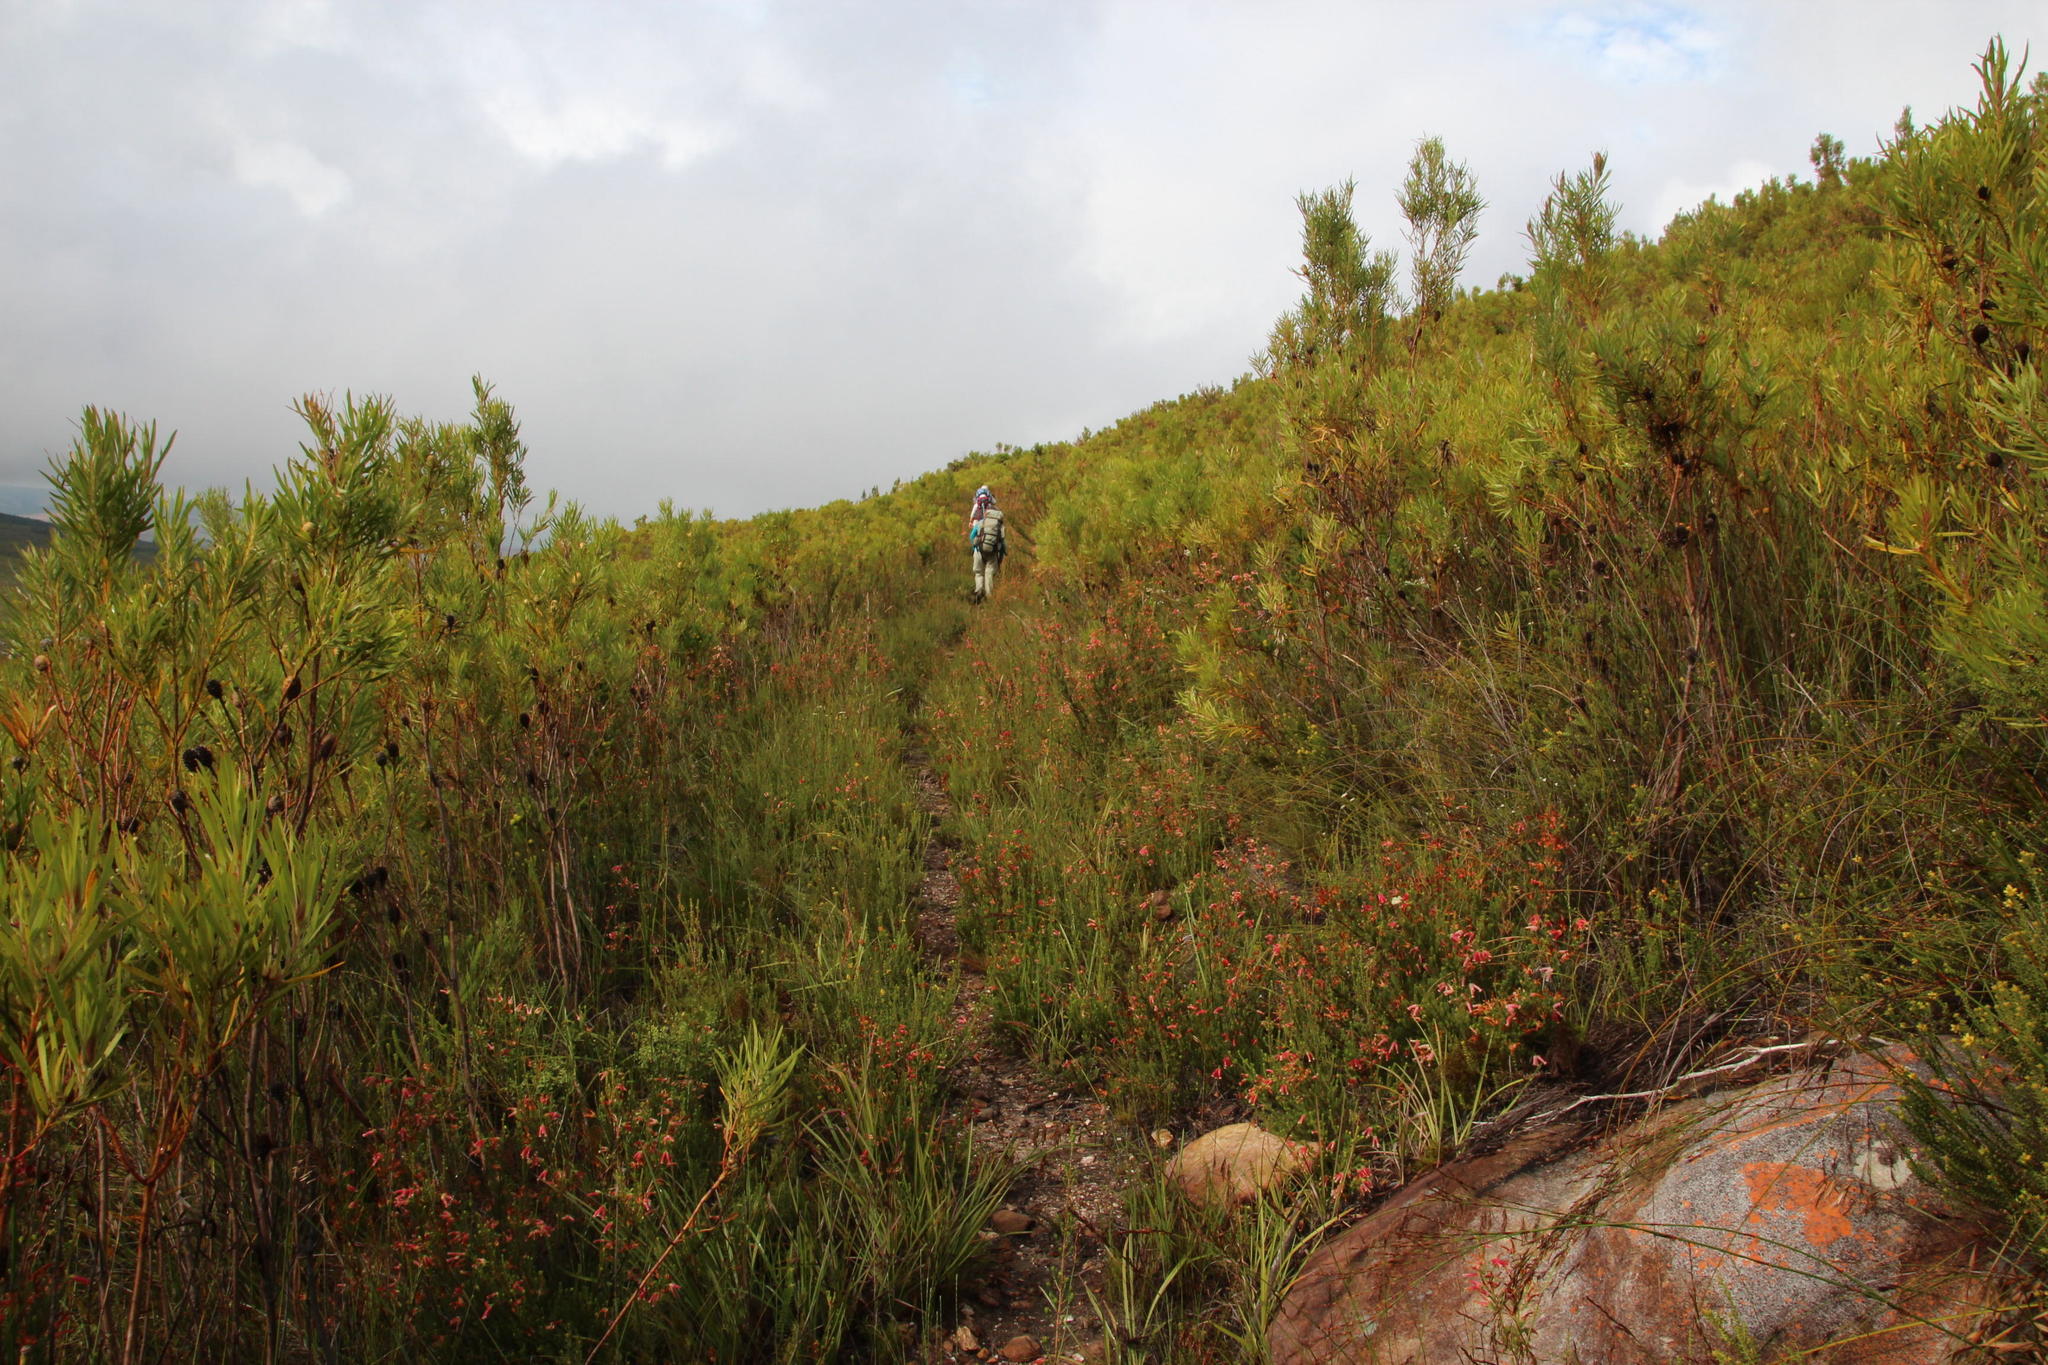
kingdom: Plantae
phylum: Tracheophyta
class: Magnoliopsida
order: Ericales
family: Ericaceae
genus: Erica
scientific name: Erica versicolor
